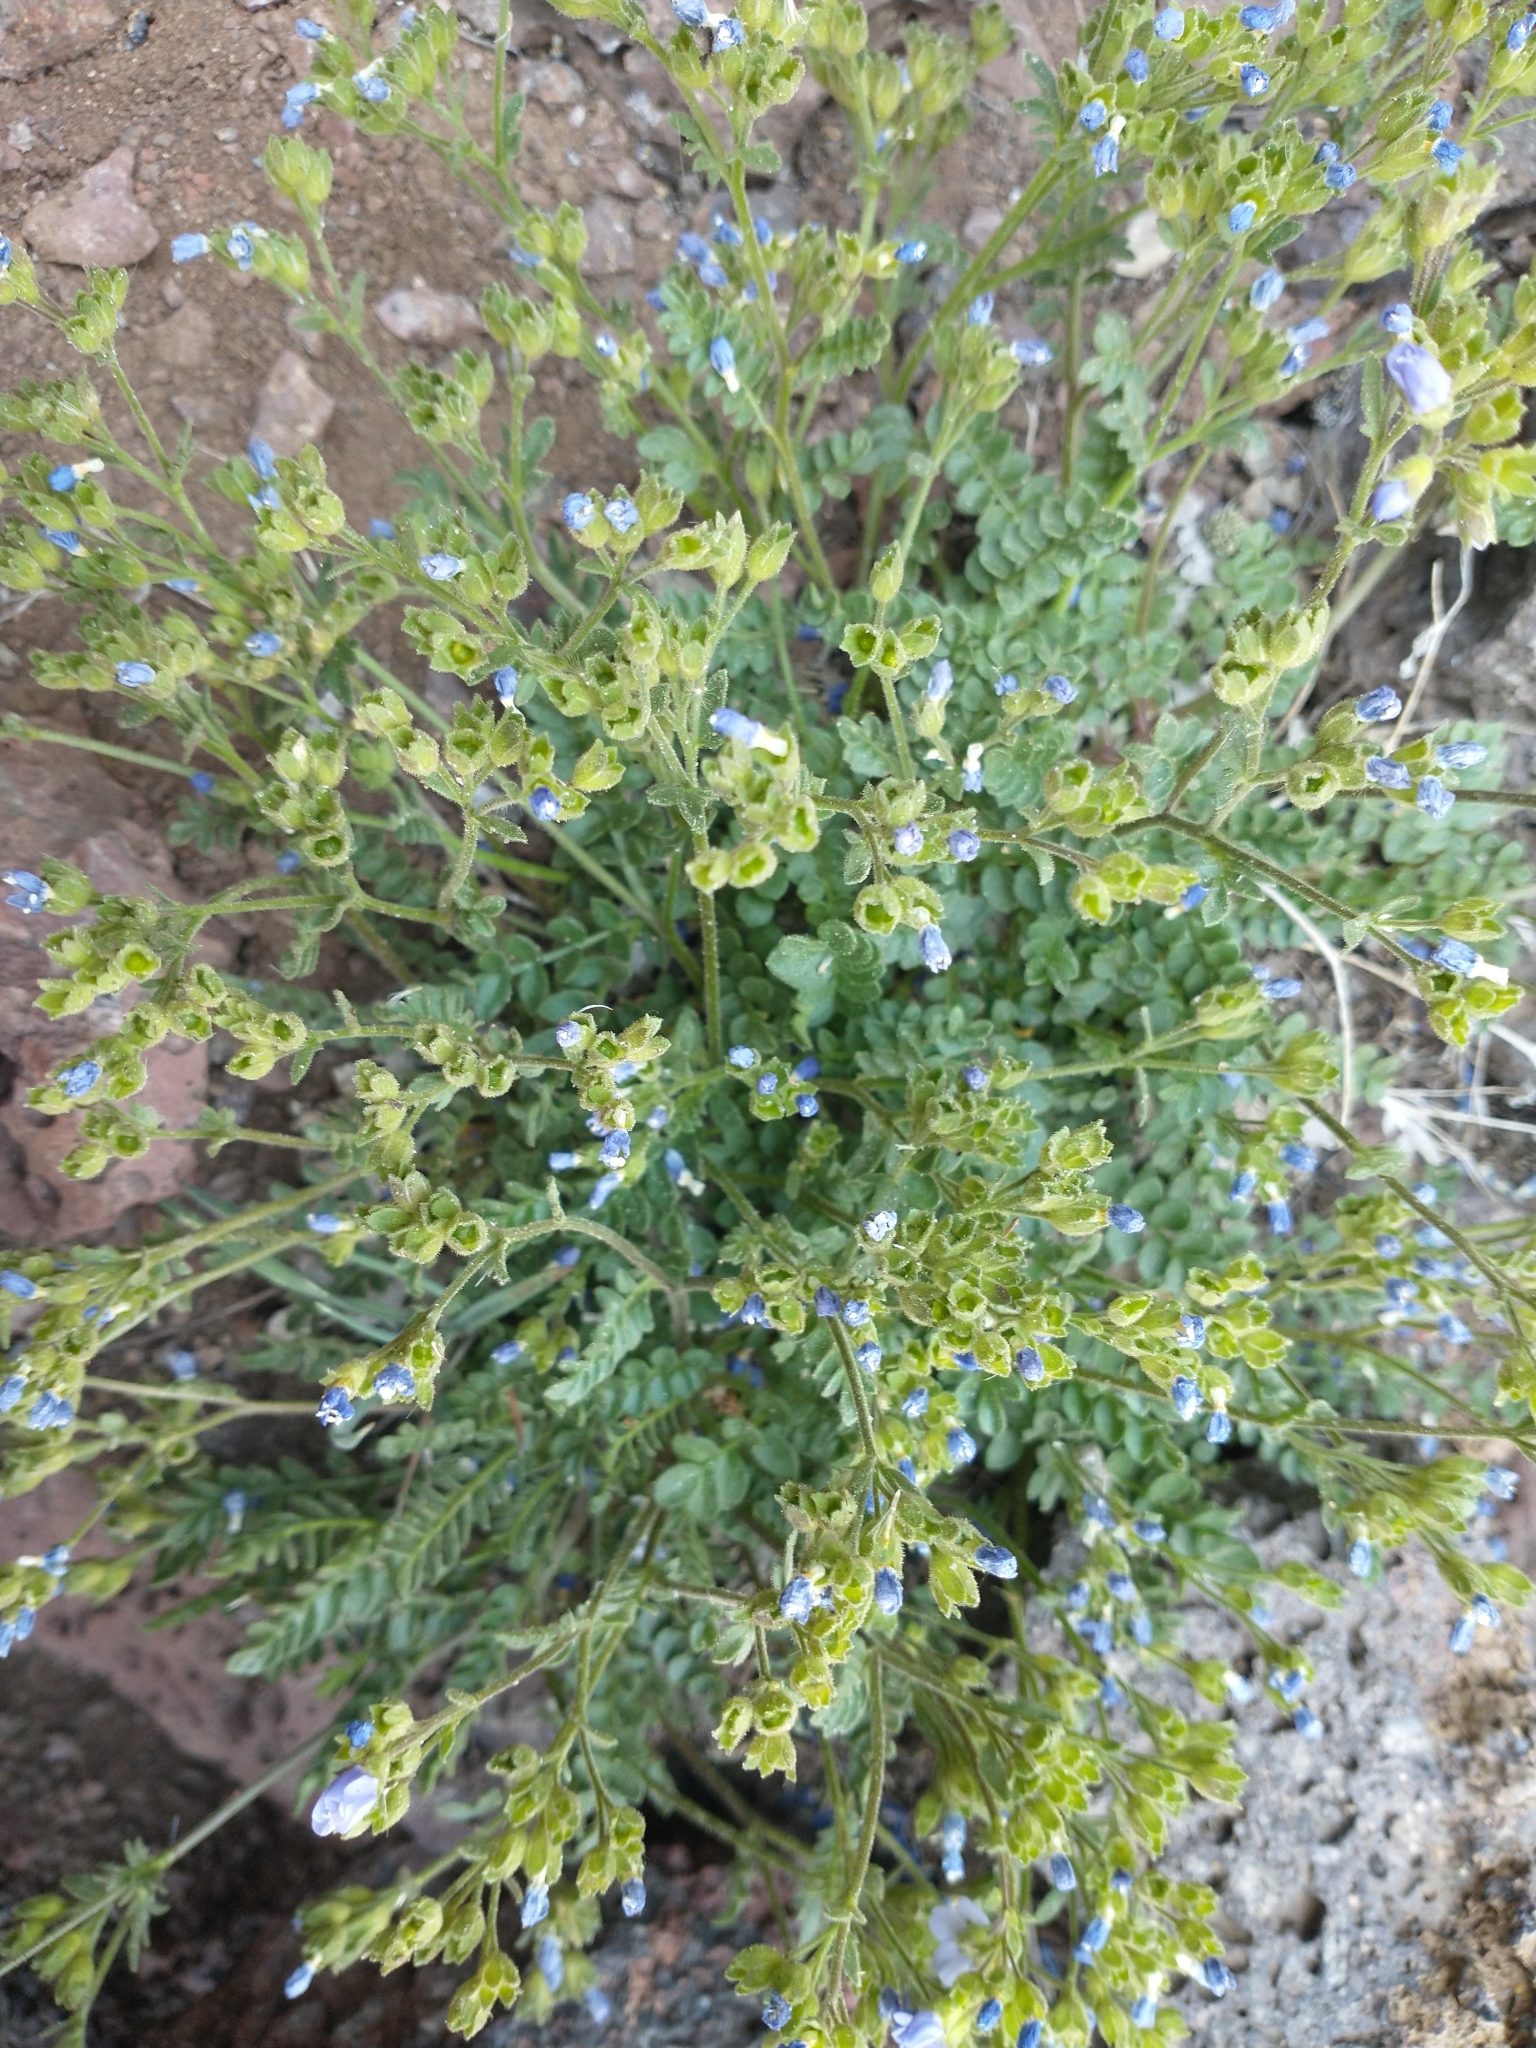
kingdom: Plantae
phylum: Tracheophyta
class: Magnoliopsida
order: Ericales
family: Polemoniaceae
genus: Polemonium
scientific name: Polemonium pulcherrimum
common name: Short jacob's-ladder
